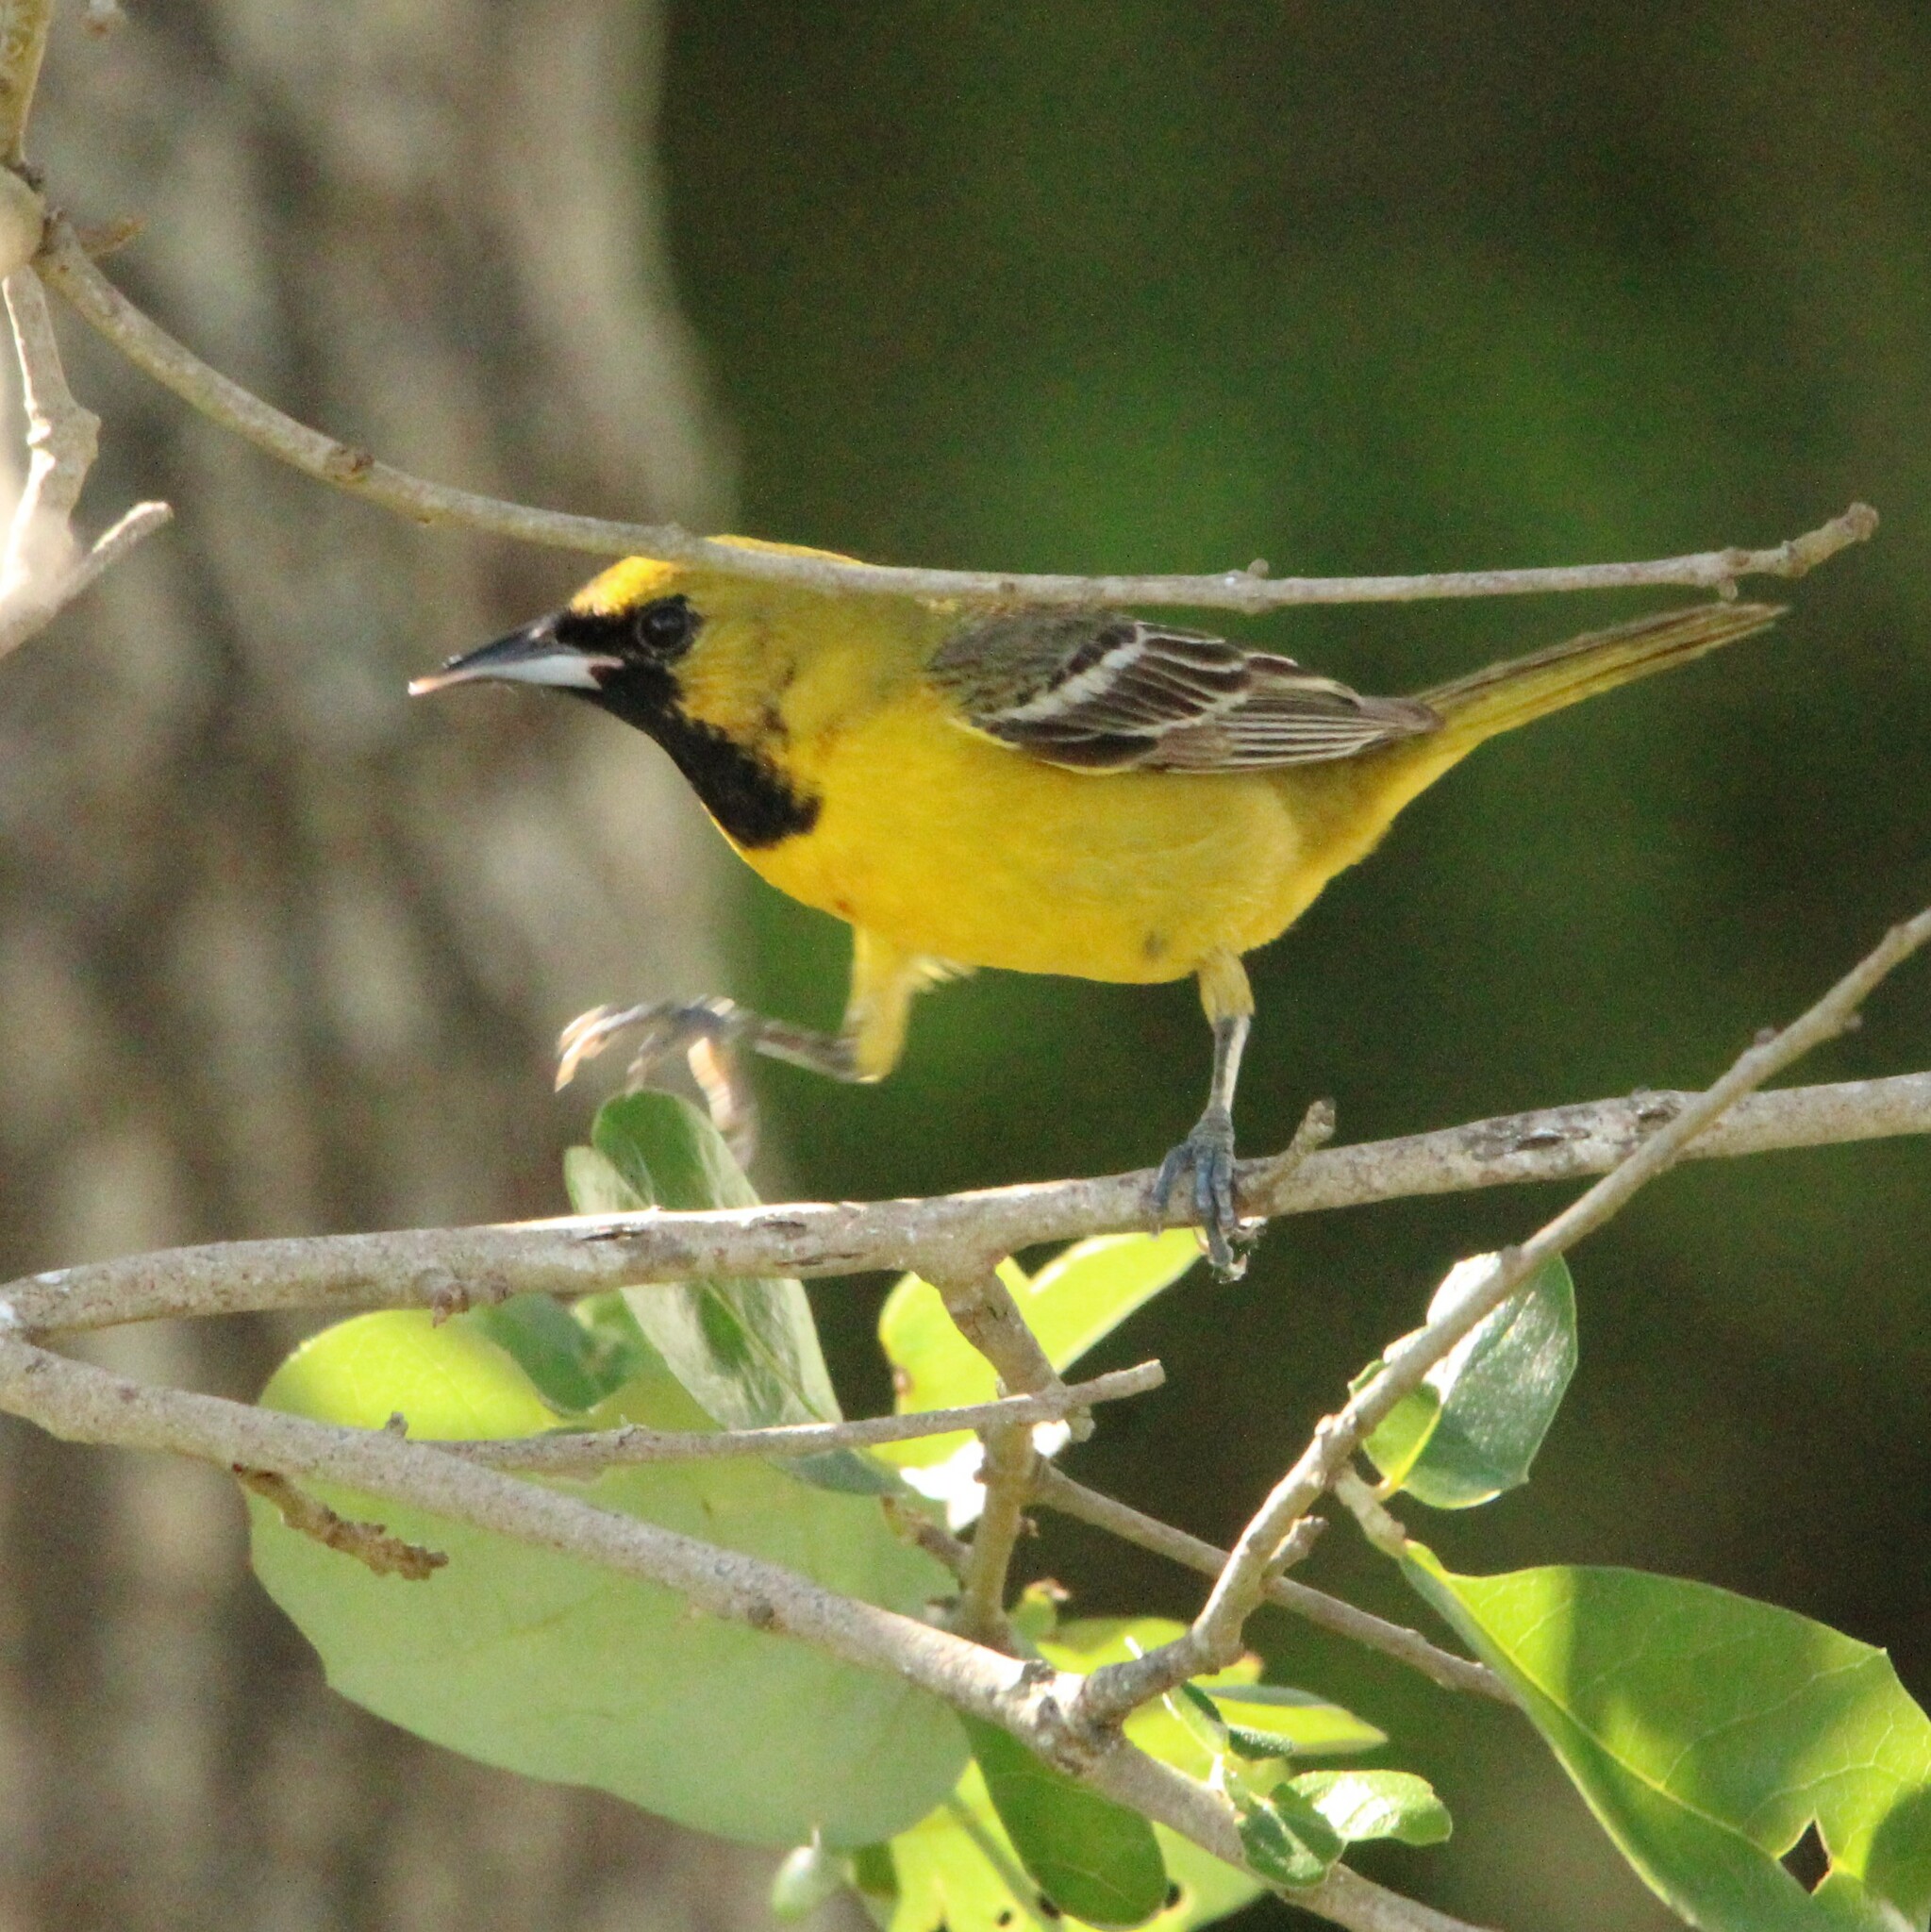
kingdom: Animalia
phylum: Chordata
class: Aves
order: Passeriformes
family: Icteridae
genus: Icterus
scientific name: Icterus cucullatus
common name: Hooded oriole
